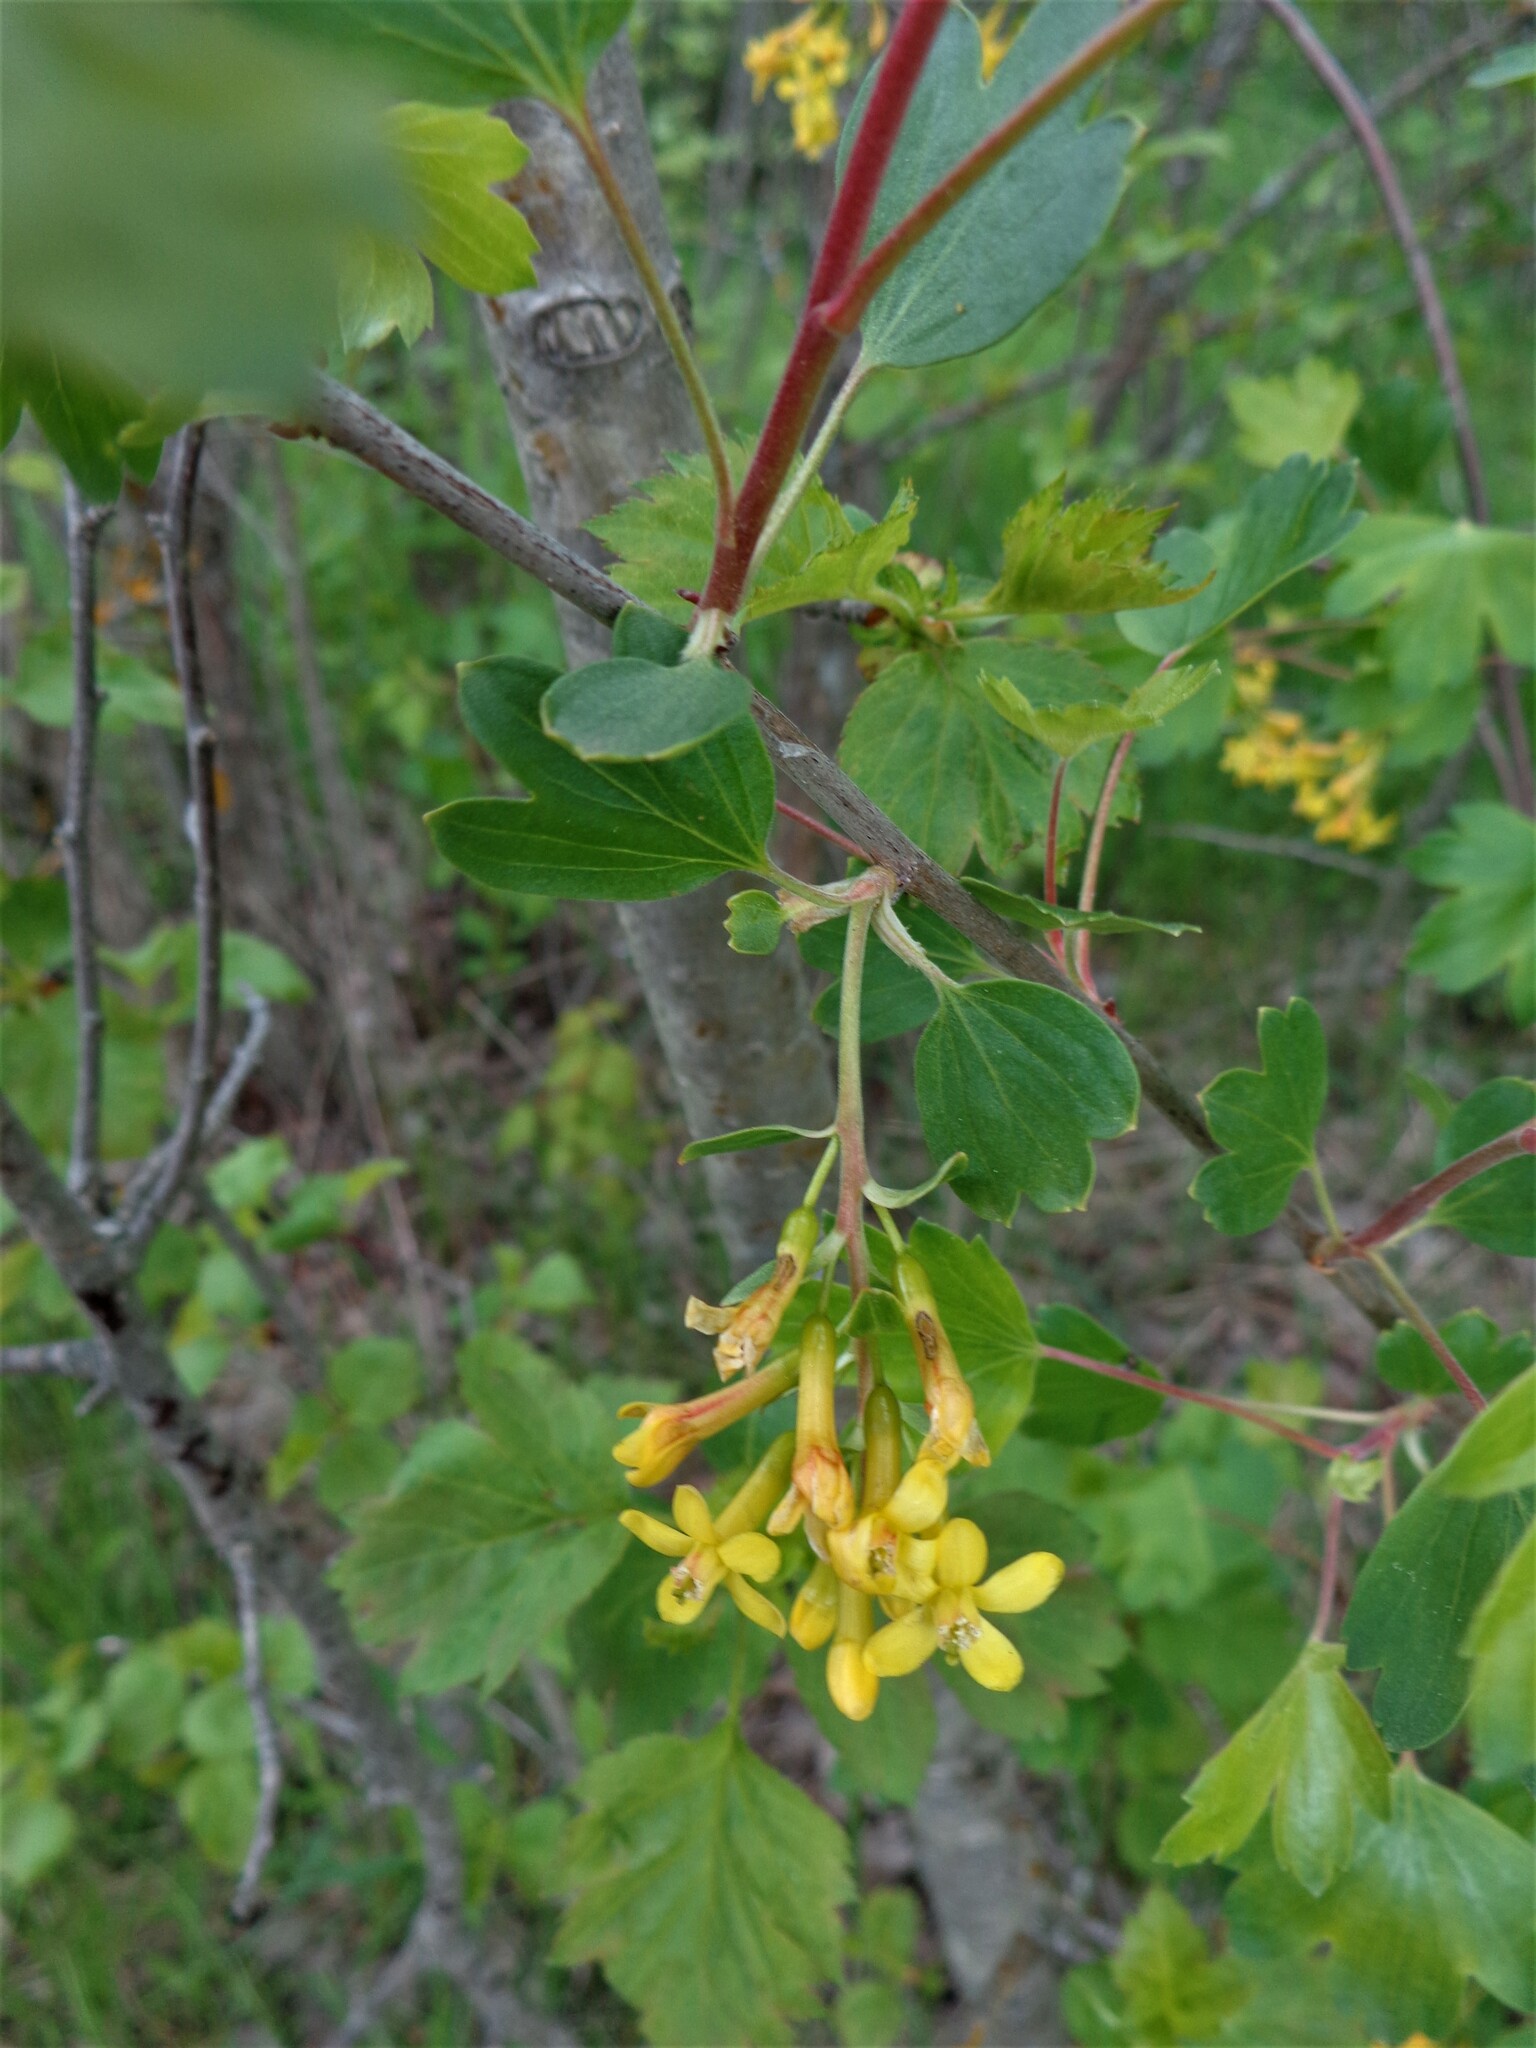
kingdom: Plantae
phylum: Tracheophyta
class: Magnoliopsida
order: Saxifragales
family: Grossulariaceae
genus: Ribes
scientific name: Ribes aureum
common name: Golden currant
